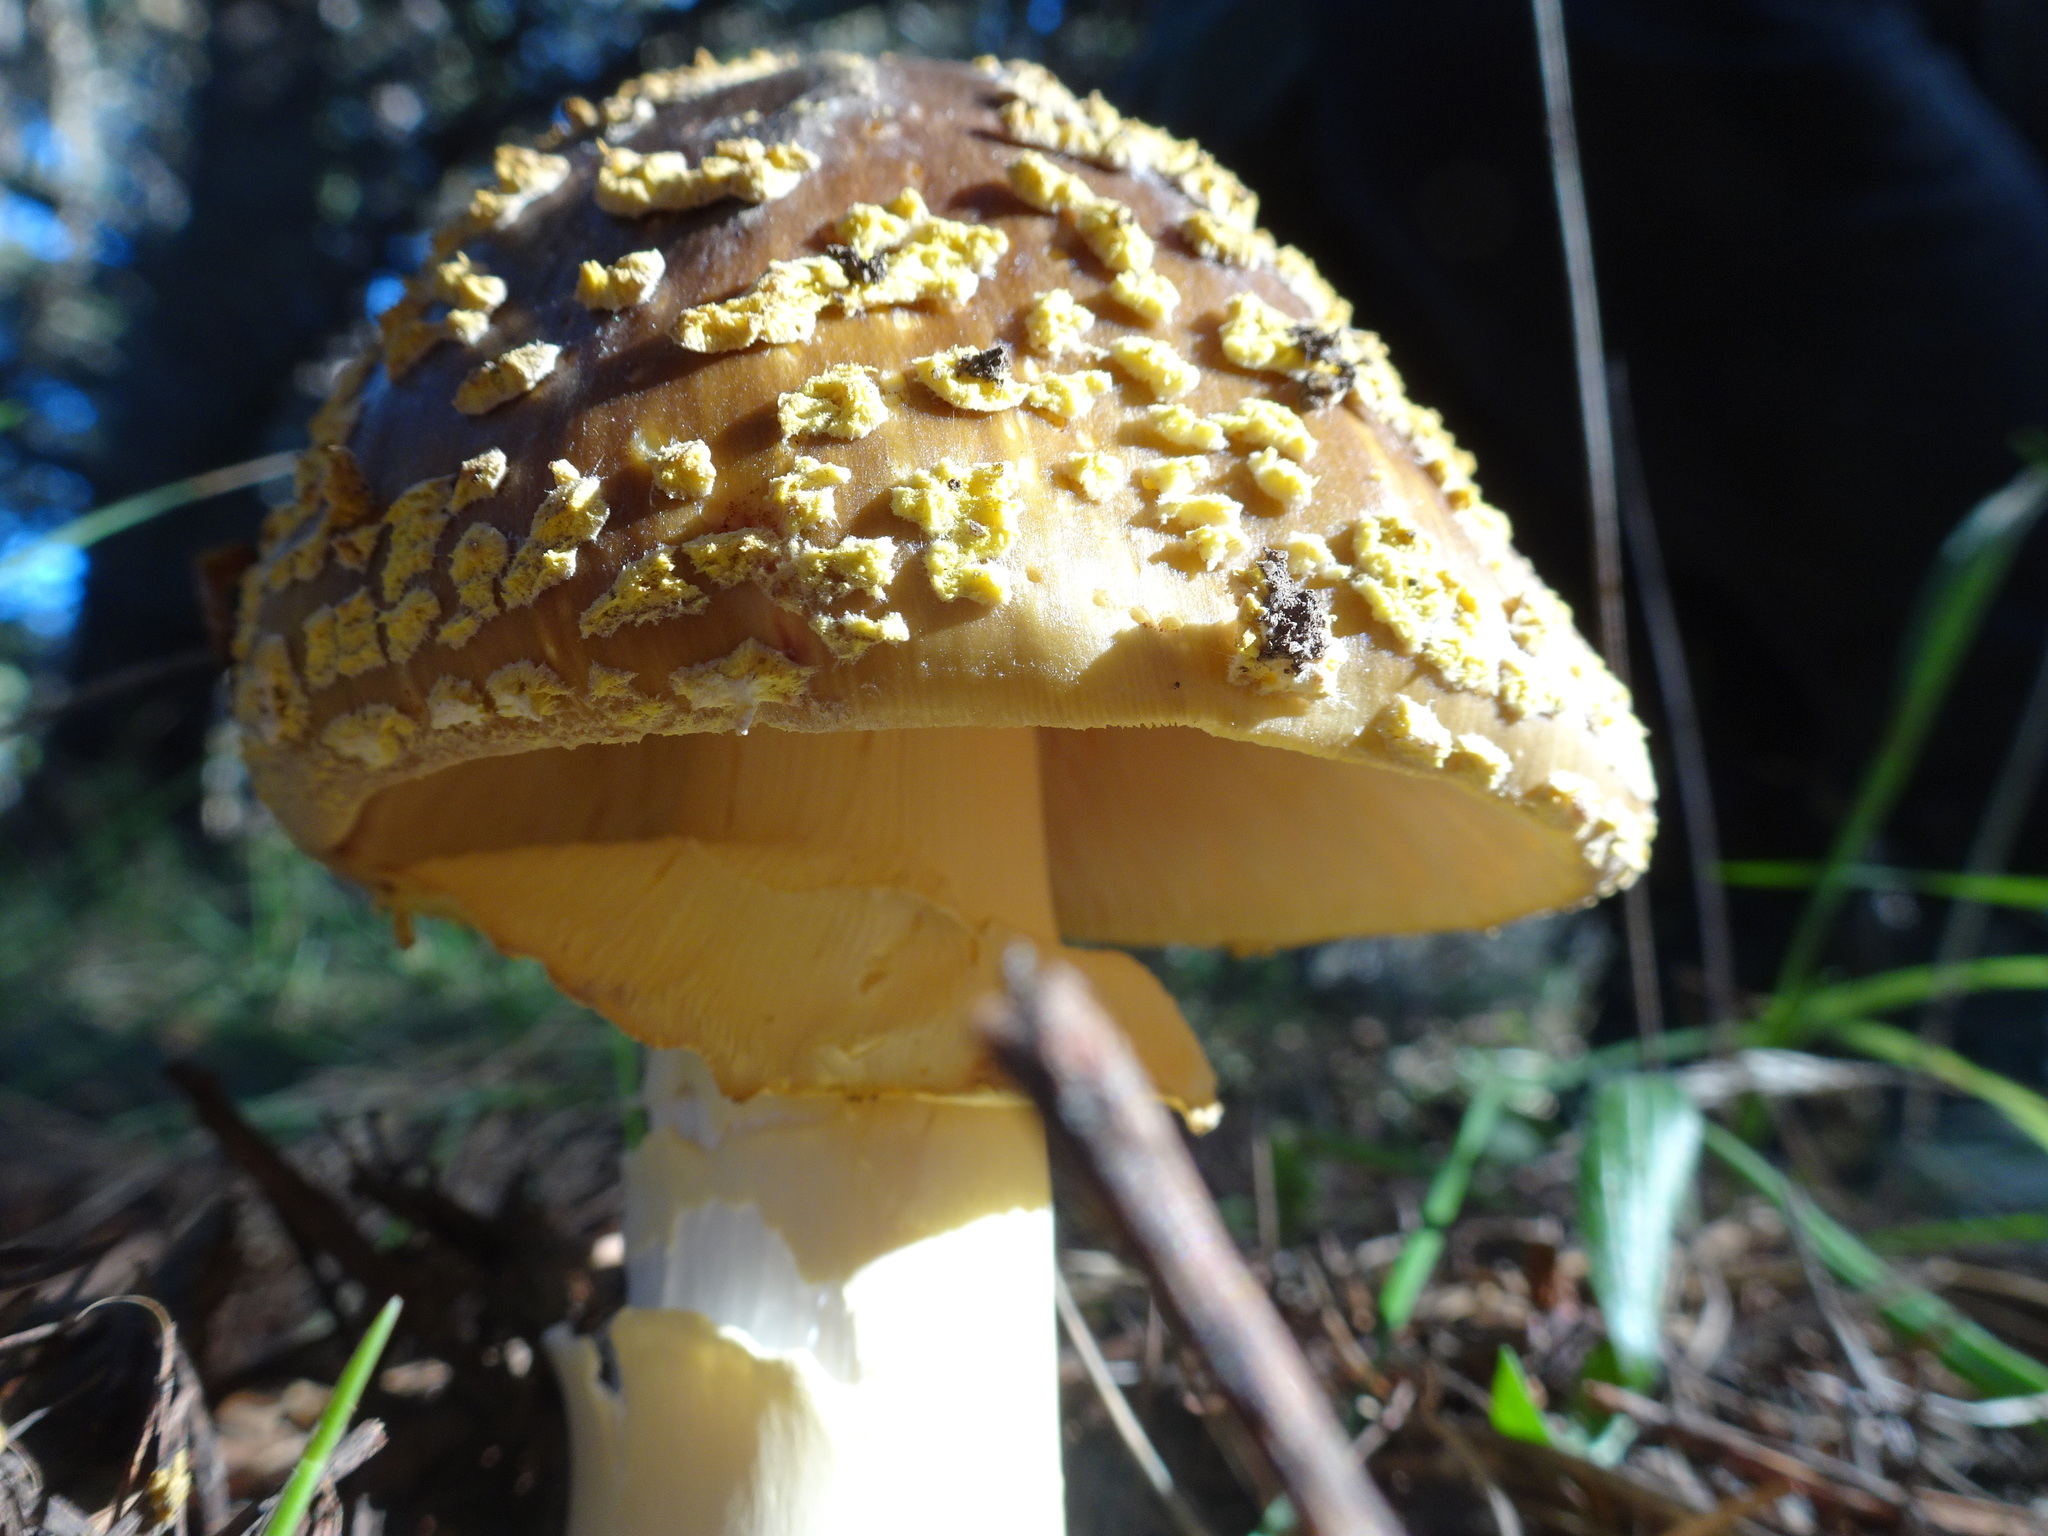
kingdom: Fungi
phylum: Basidiomycota
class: Agaricomycetes
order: Agaricales
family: Amanitaceae
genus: Amanita
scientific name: Amanita augusta
